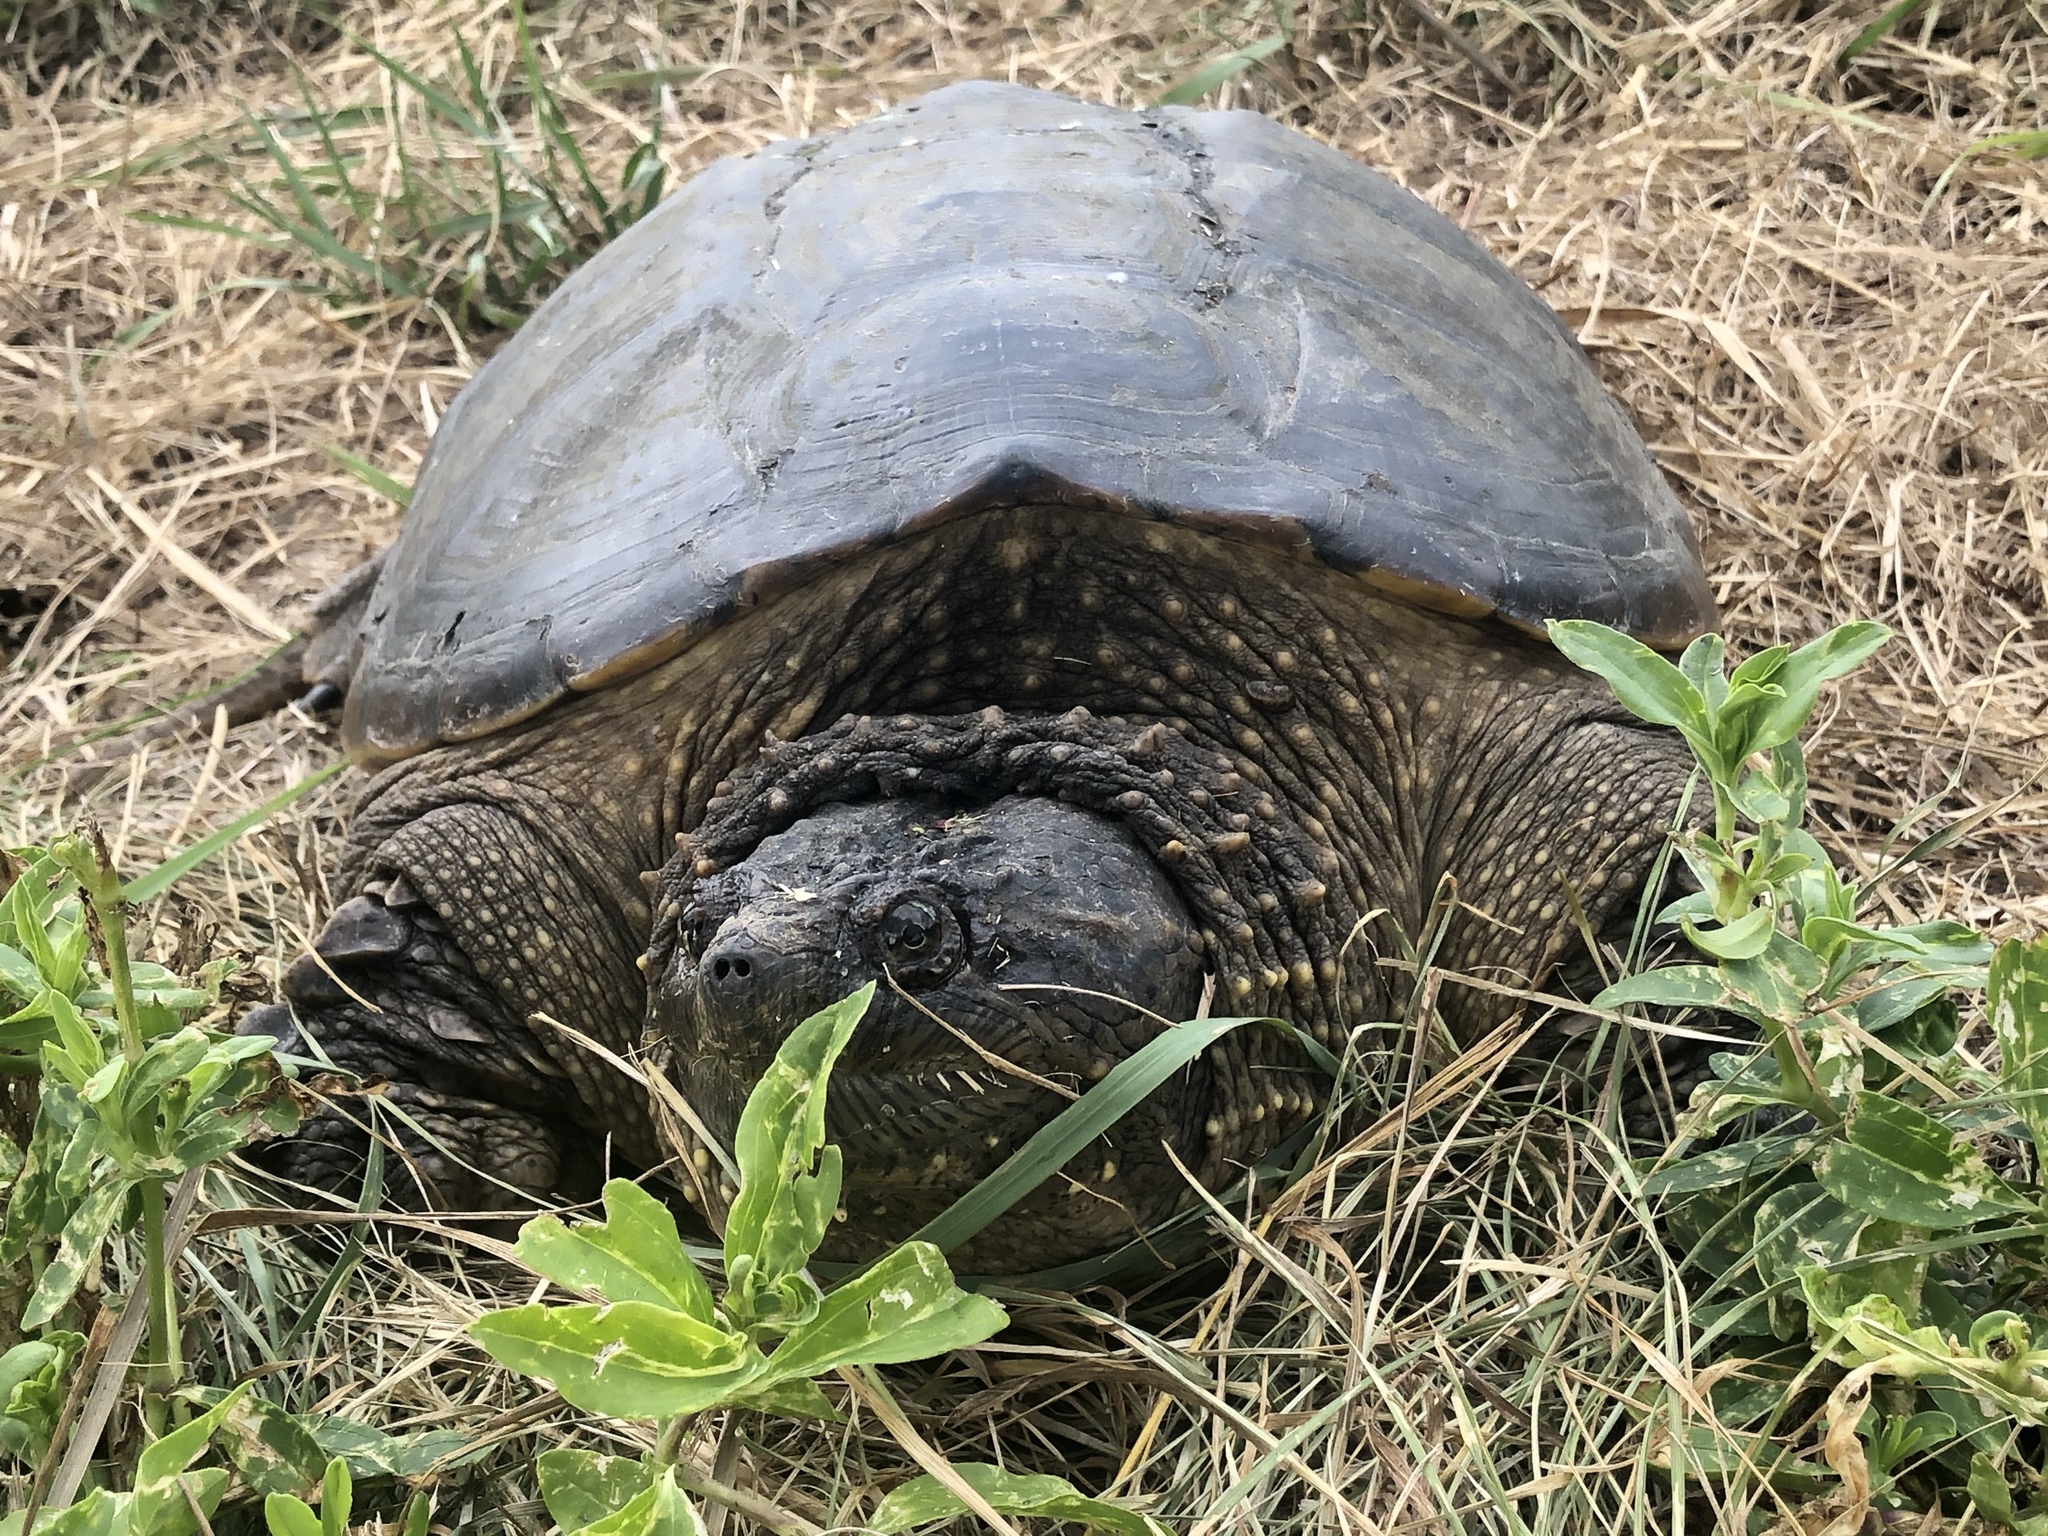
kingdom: Animalia
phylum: Chordata
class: Testudines
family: Chelydridae
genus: Chelydra
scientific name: Chelydra serpentina
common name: Common snapping turtle
